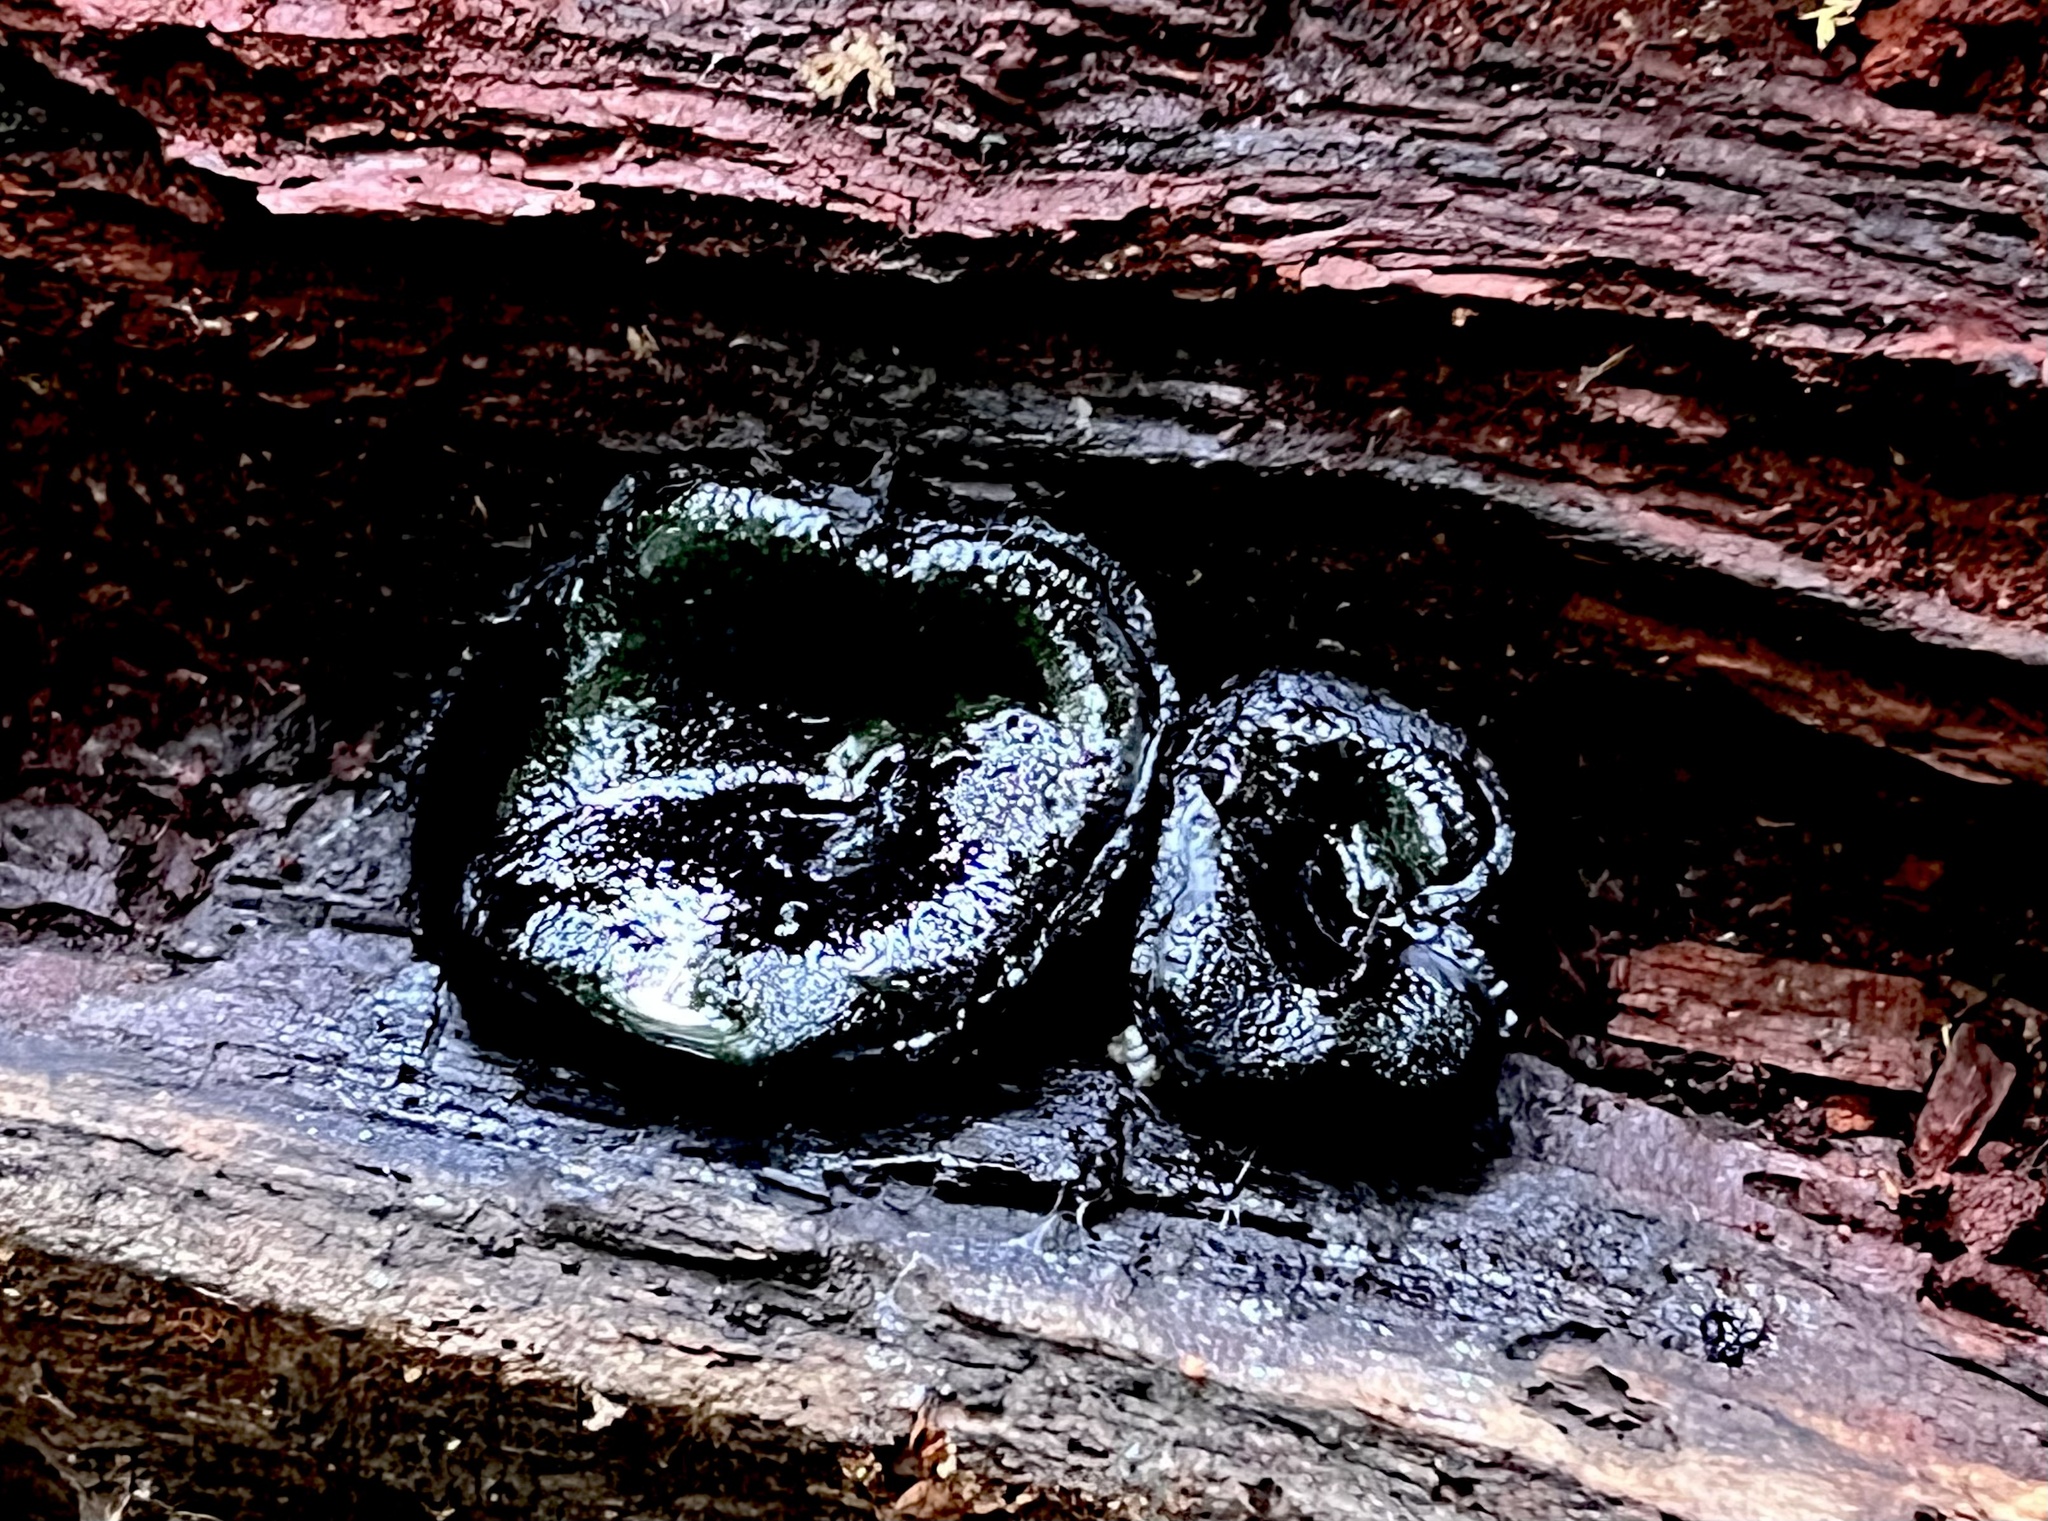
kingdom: Fungi
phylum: Ascomycota
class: Sordariomycetes
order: Boliniales
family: Boliniaceae
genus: Camarops
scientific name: Camarops petersii
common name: Dog's nose fungus
